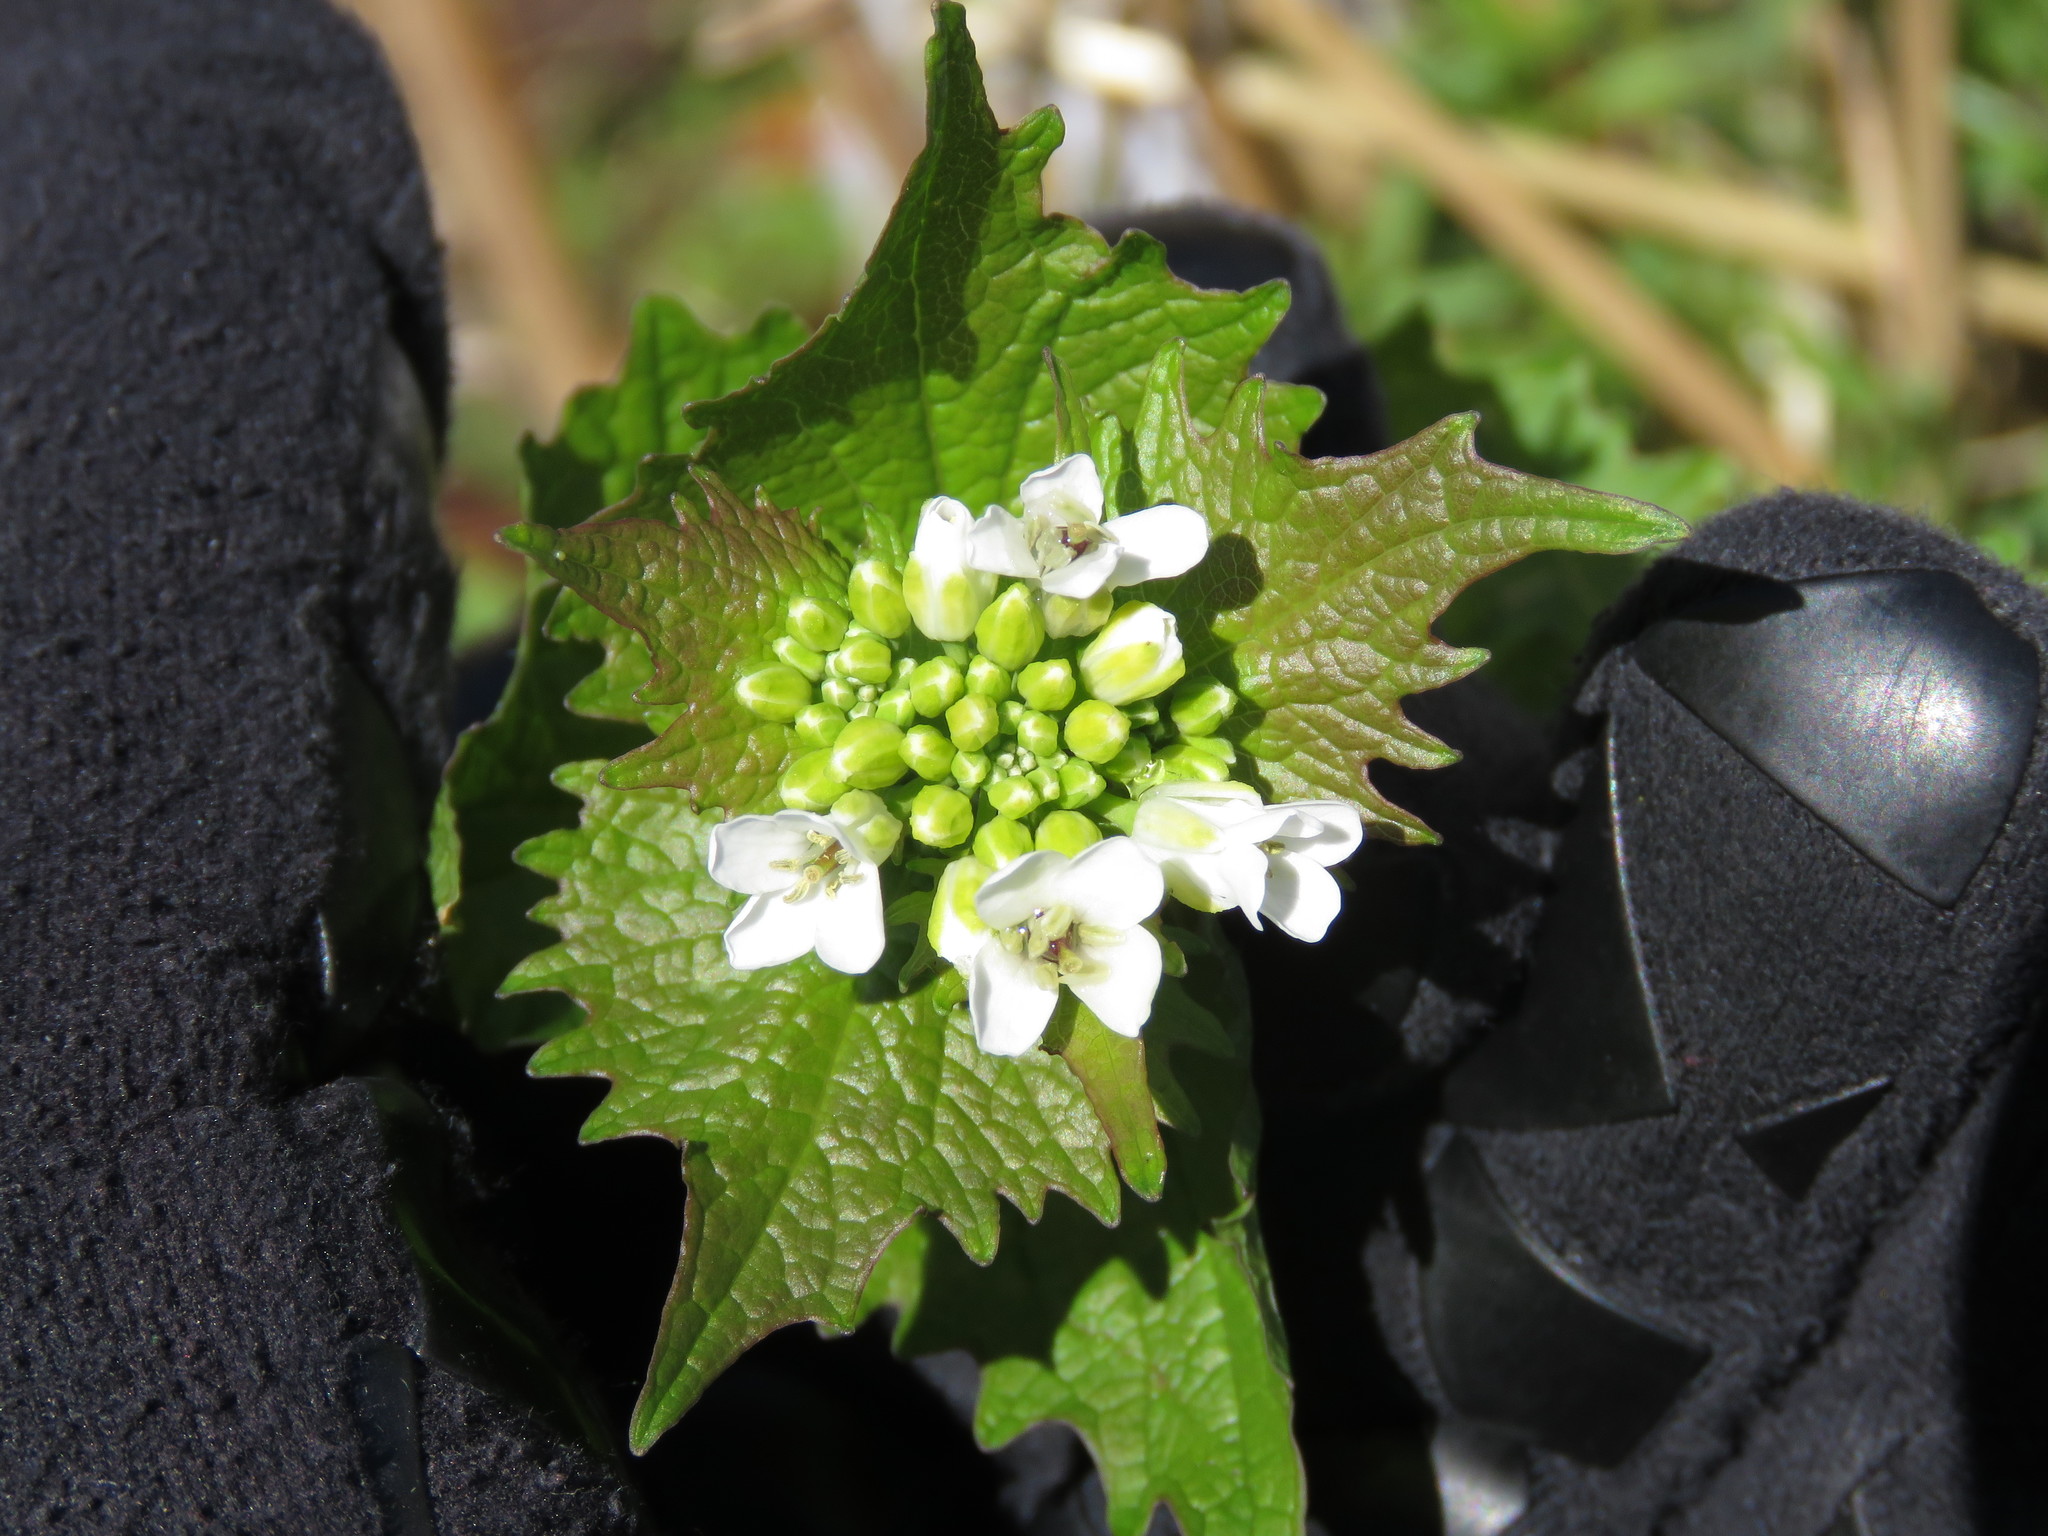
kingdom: Plantae
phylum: Tracheophyta
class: Magnoliopsida
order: Brassicales
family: Brassicaceae
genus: Alliaria
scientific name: Alliaria petiolata
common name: Garlic mustard
